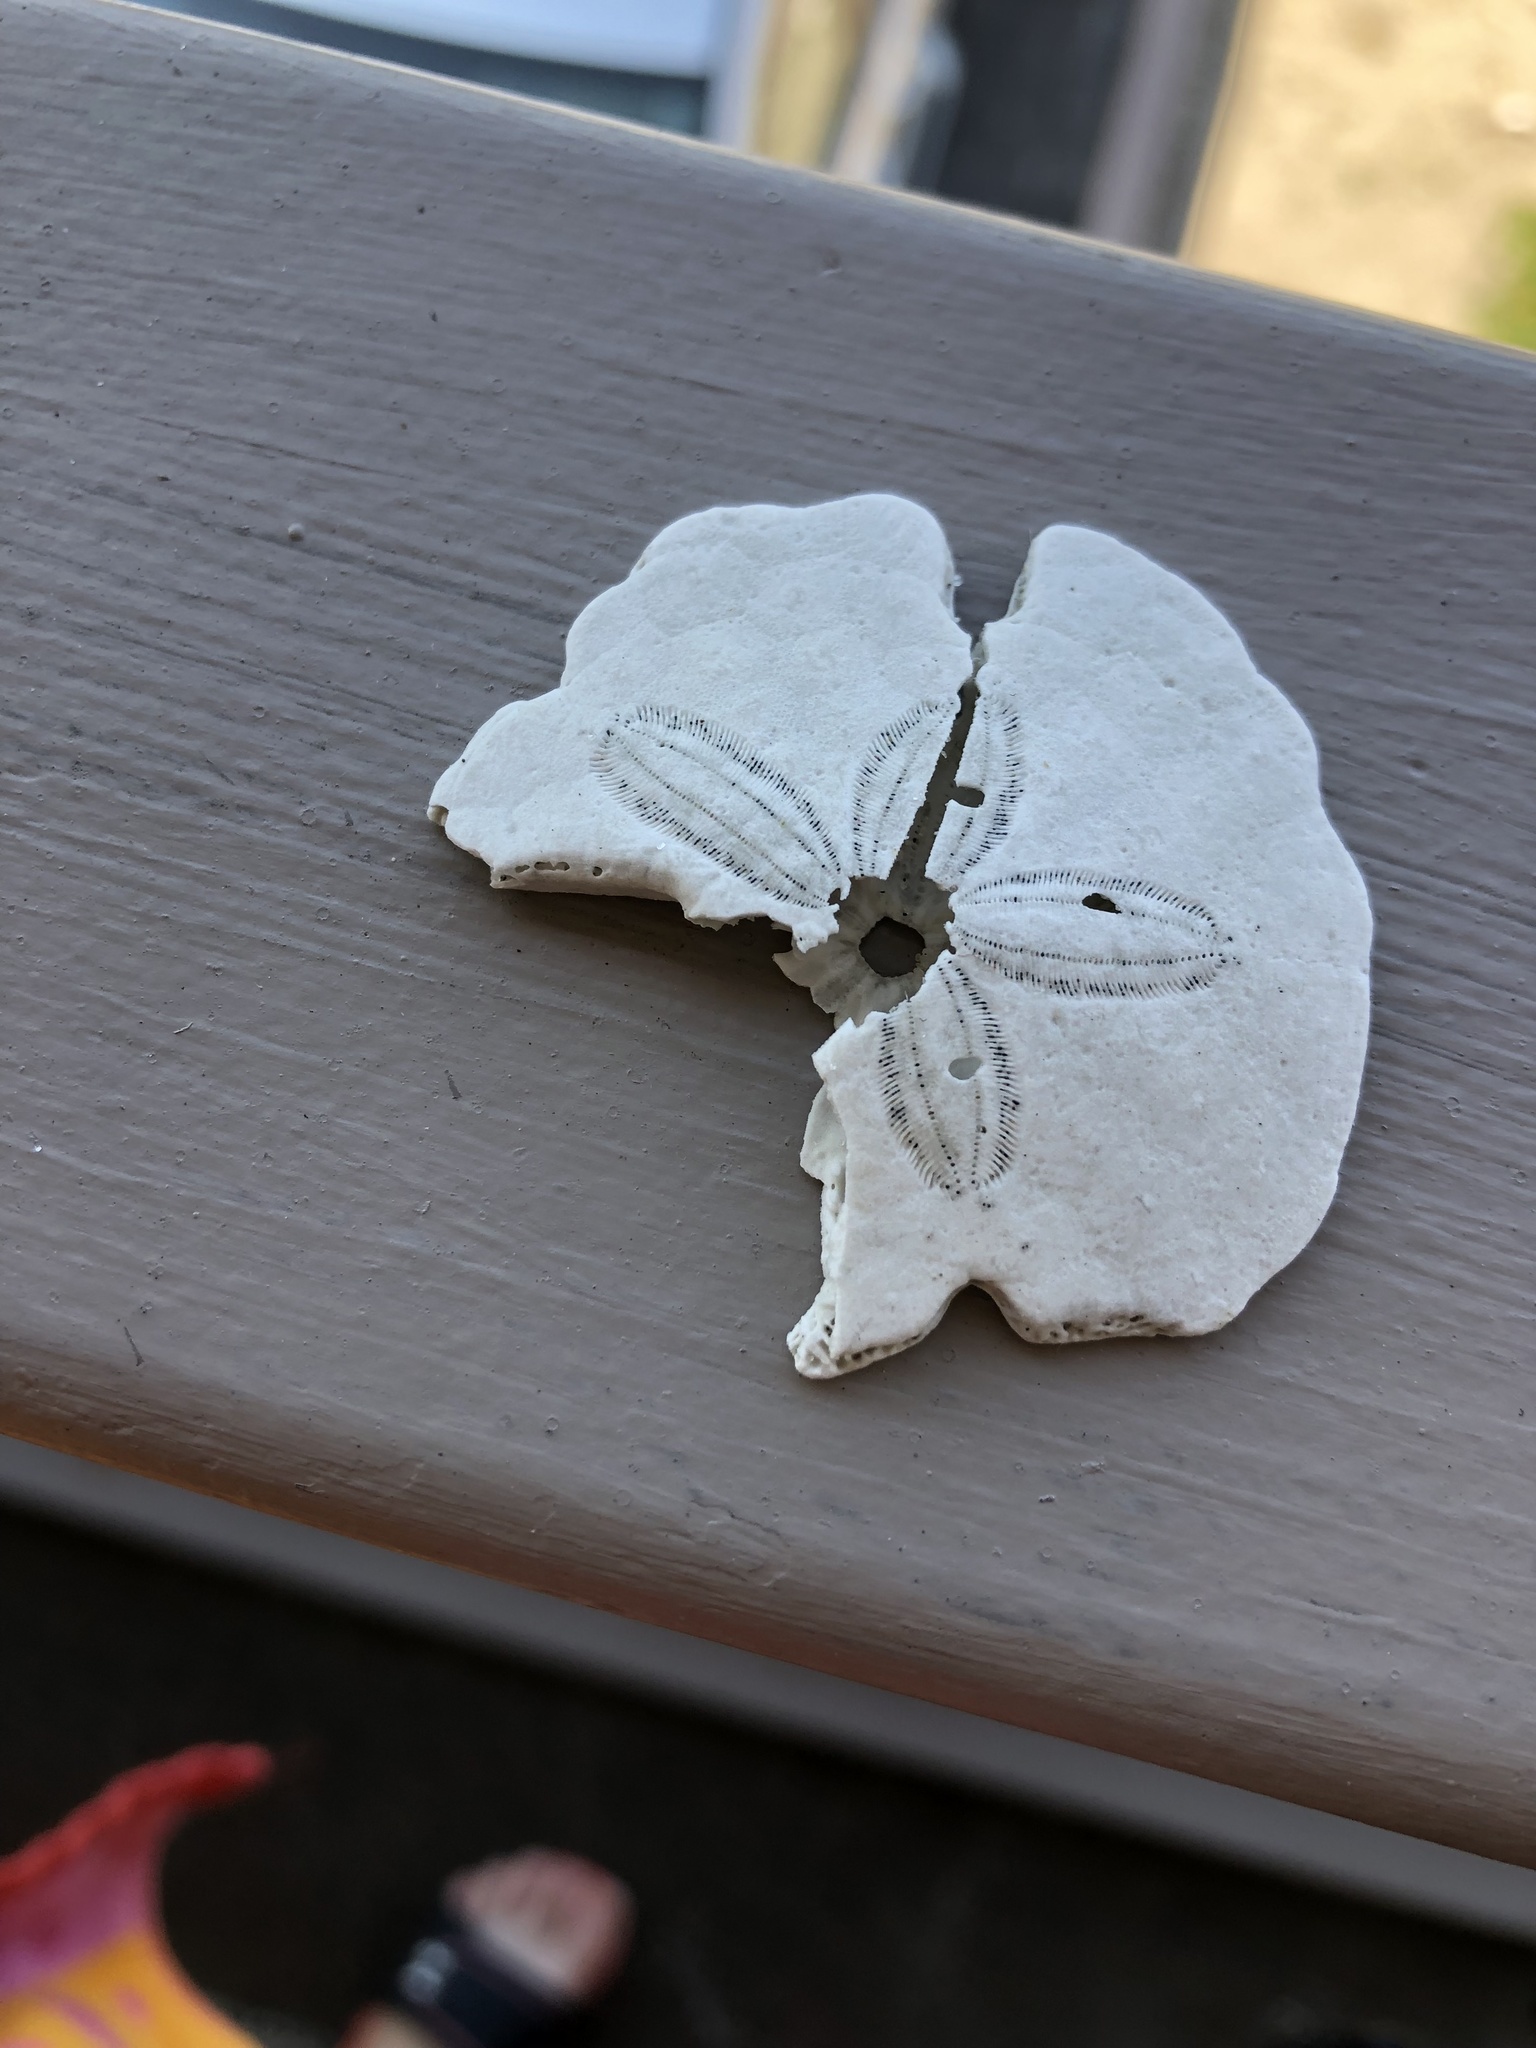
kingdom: Animalia
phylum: Echinodermata
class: Echinoidea
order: Echinolampadacea
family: Mellitidae
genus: Mellita
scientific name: Mellita isometra
